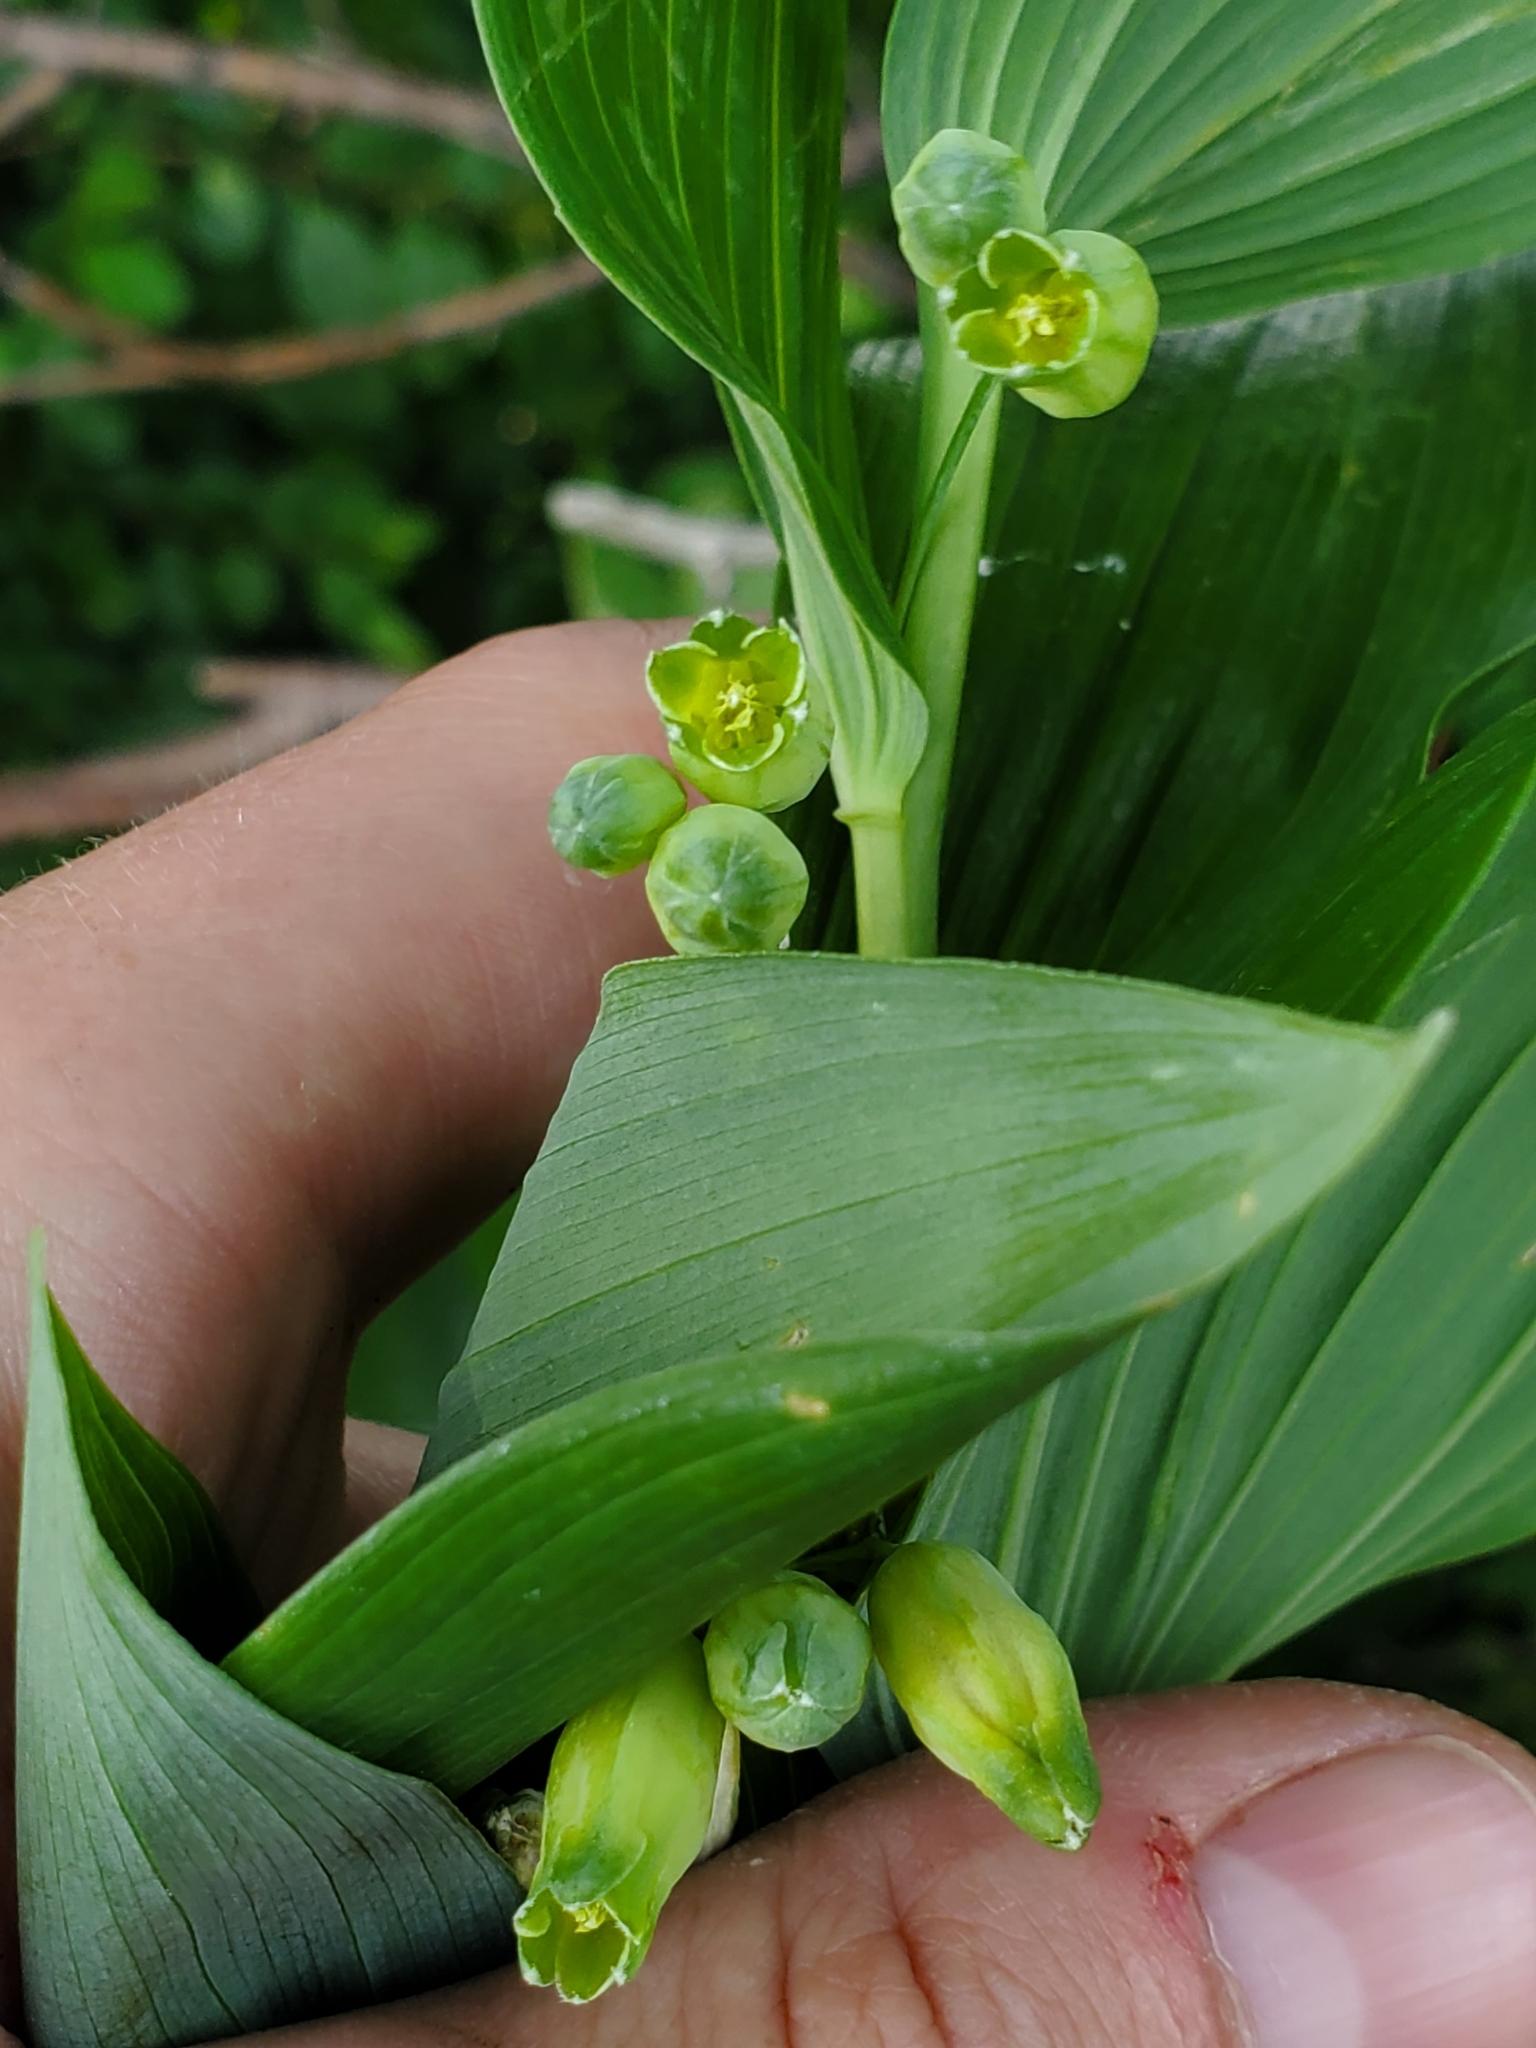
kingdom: Plantae
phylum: Tracheophyta
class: Liliopsida
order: Asparagales
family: Asparagaceae
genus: Polygonatum
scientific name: Polygonatum biflorum
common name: American solomon's-seal
